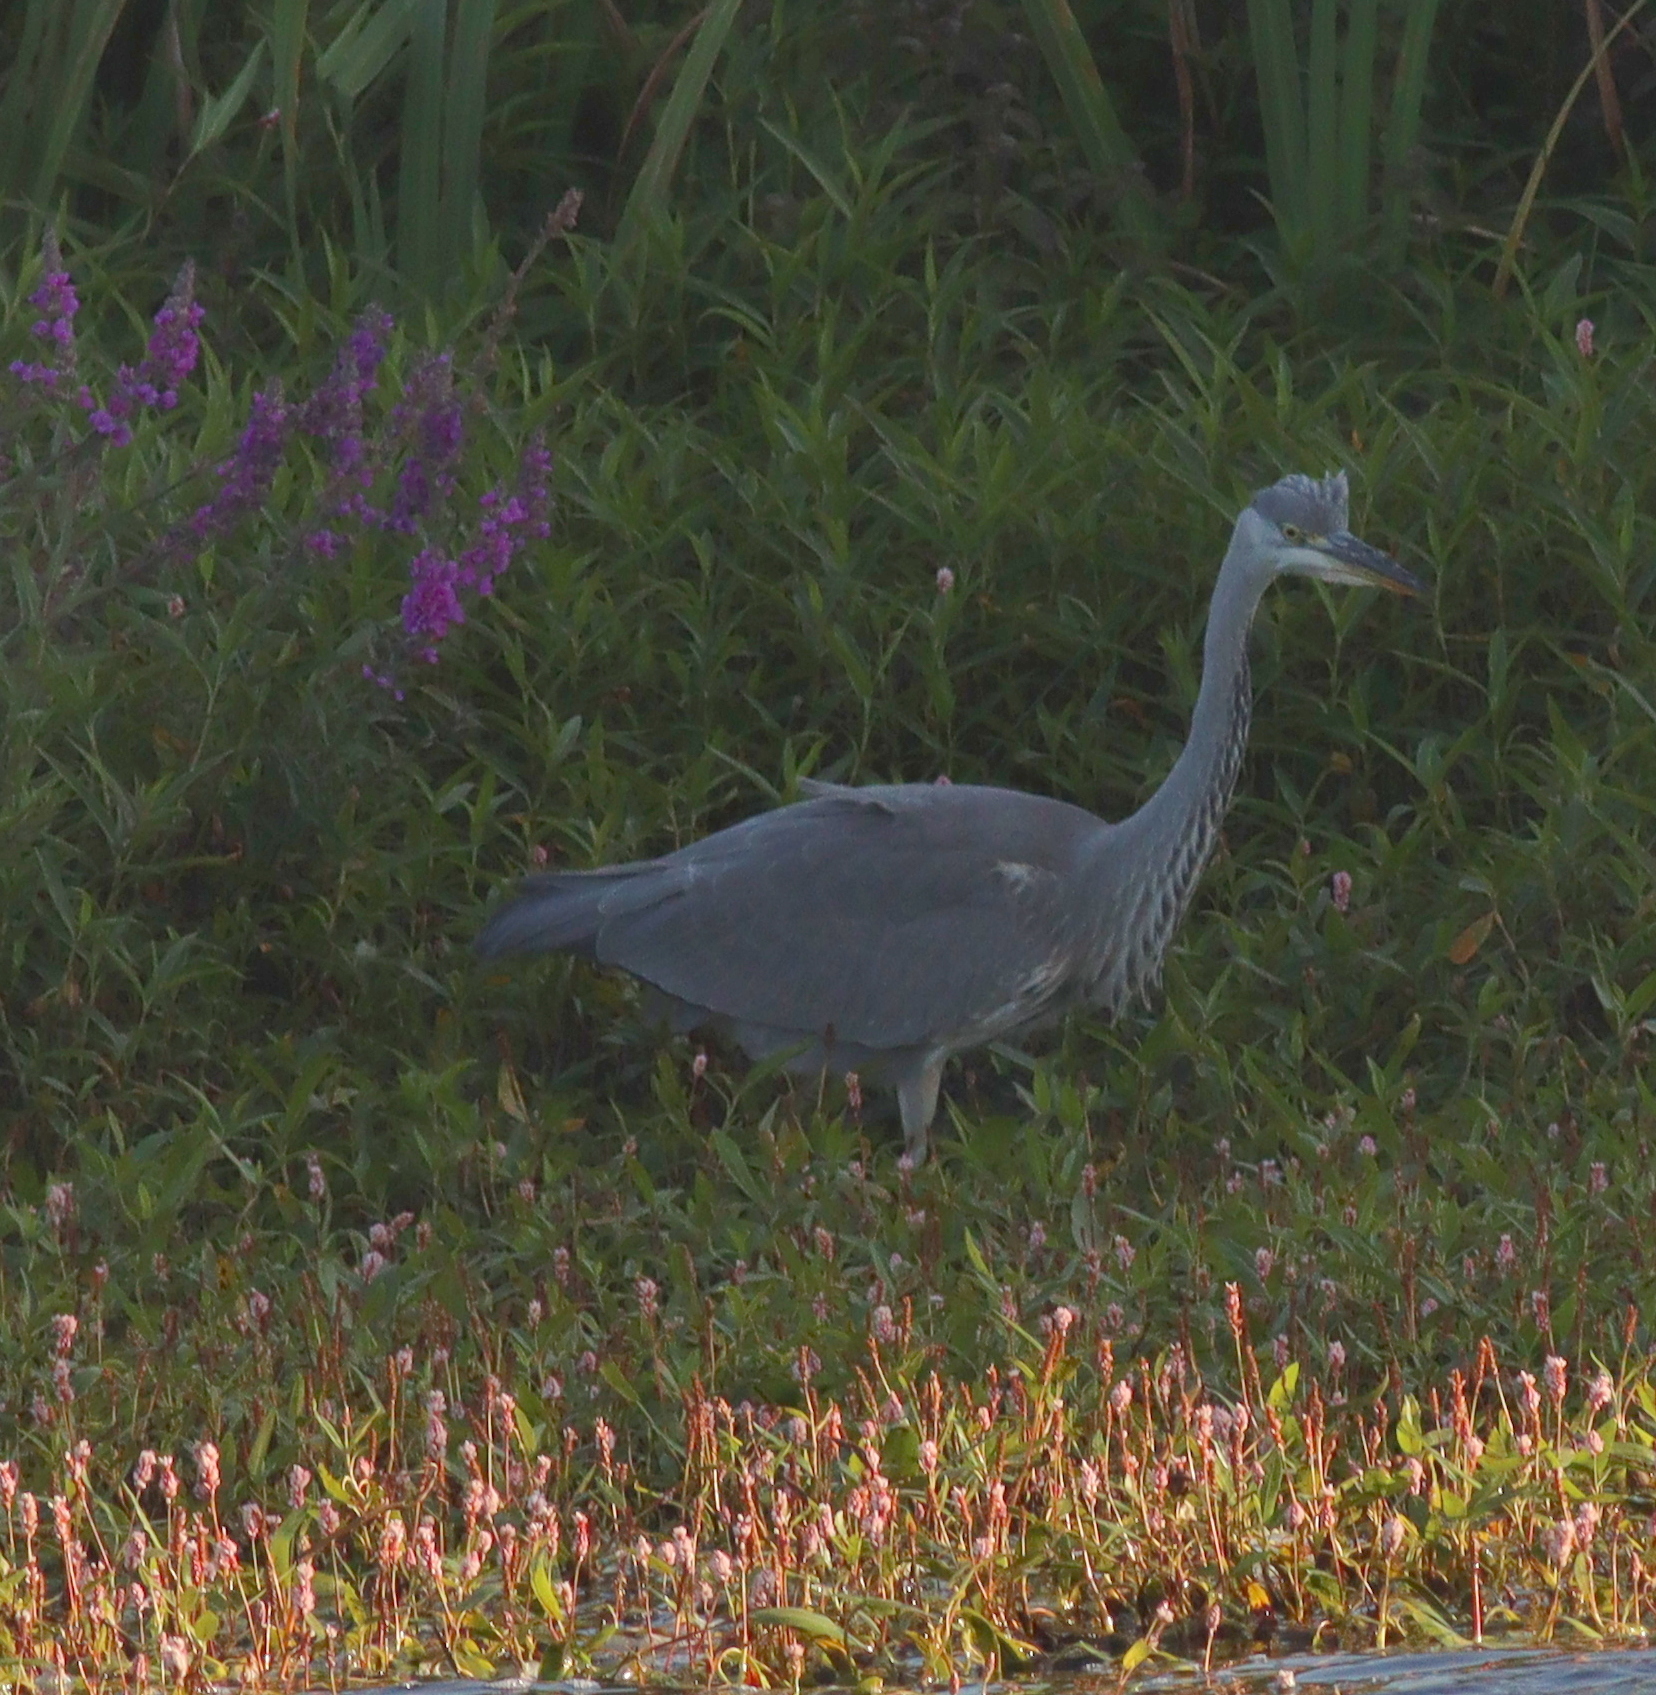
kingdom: Animalia
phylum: Chordata
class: Aves
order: Pelecaniformes
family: Ardeidae
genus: Ardea
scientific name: Ardea cinerea
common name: Grey heron
